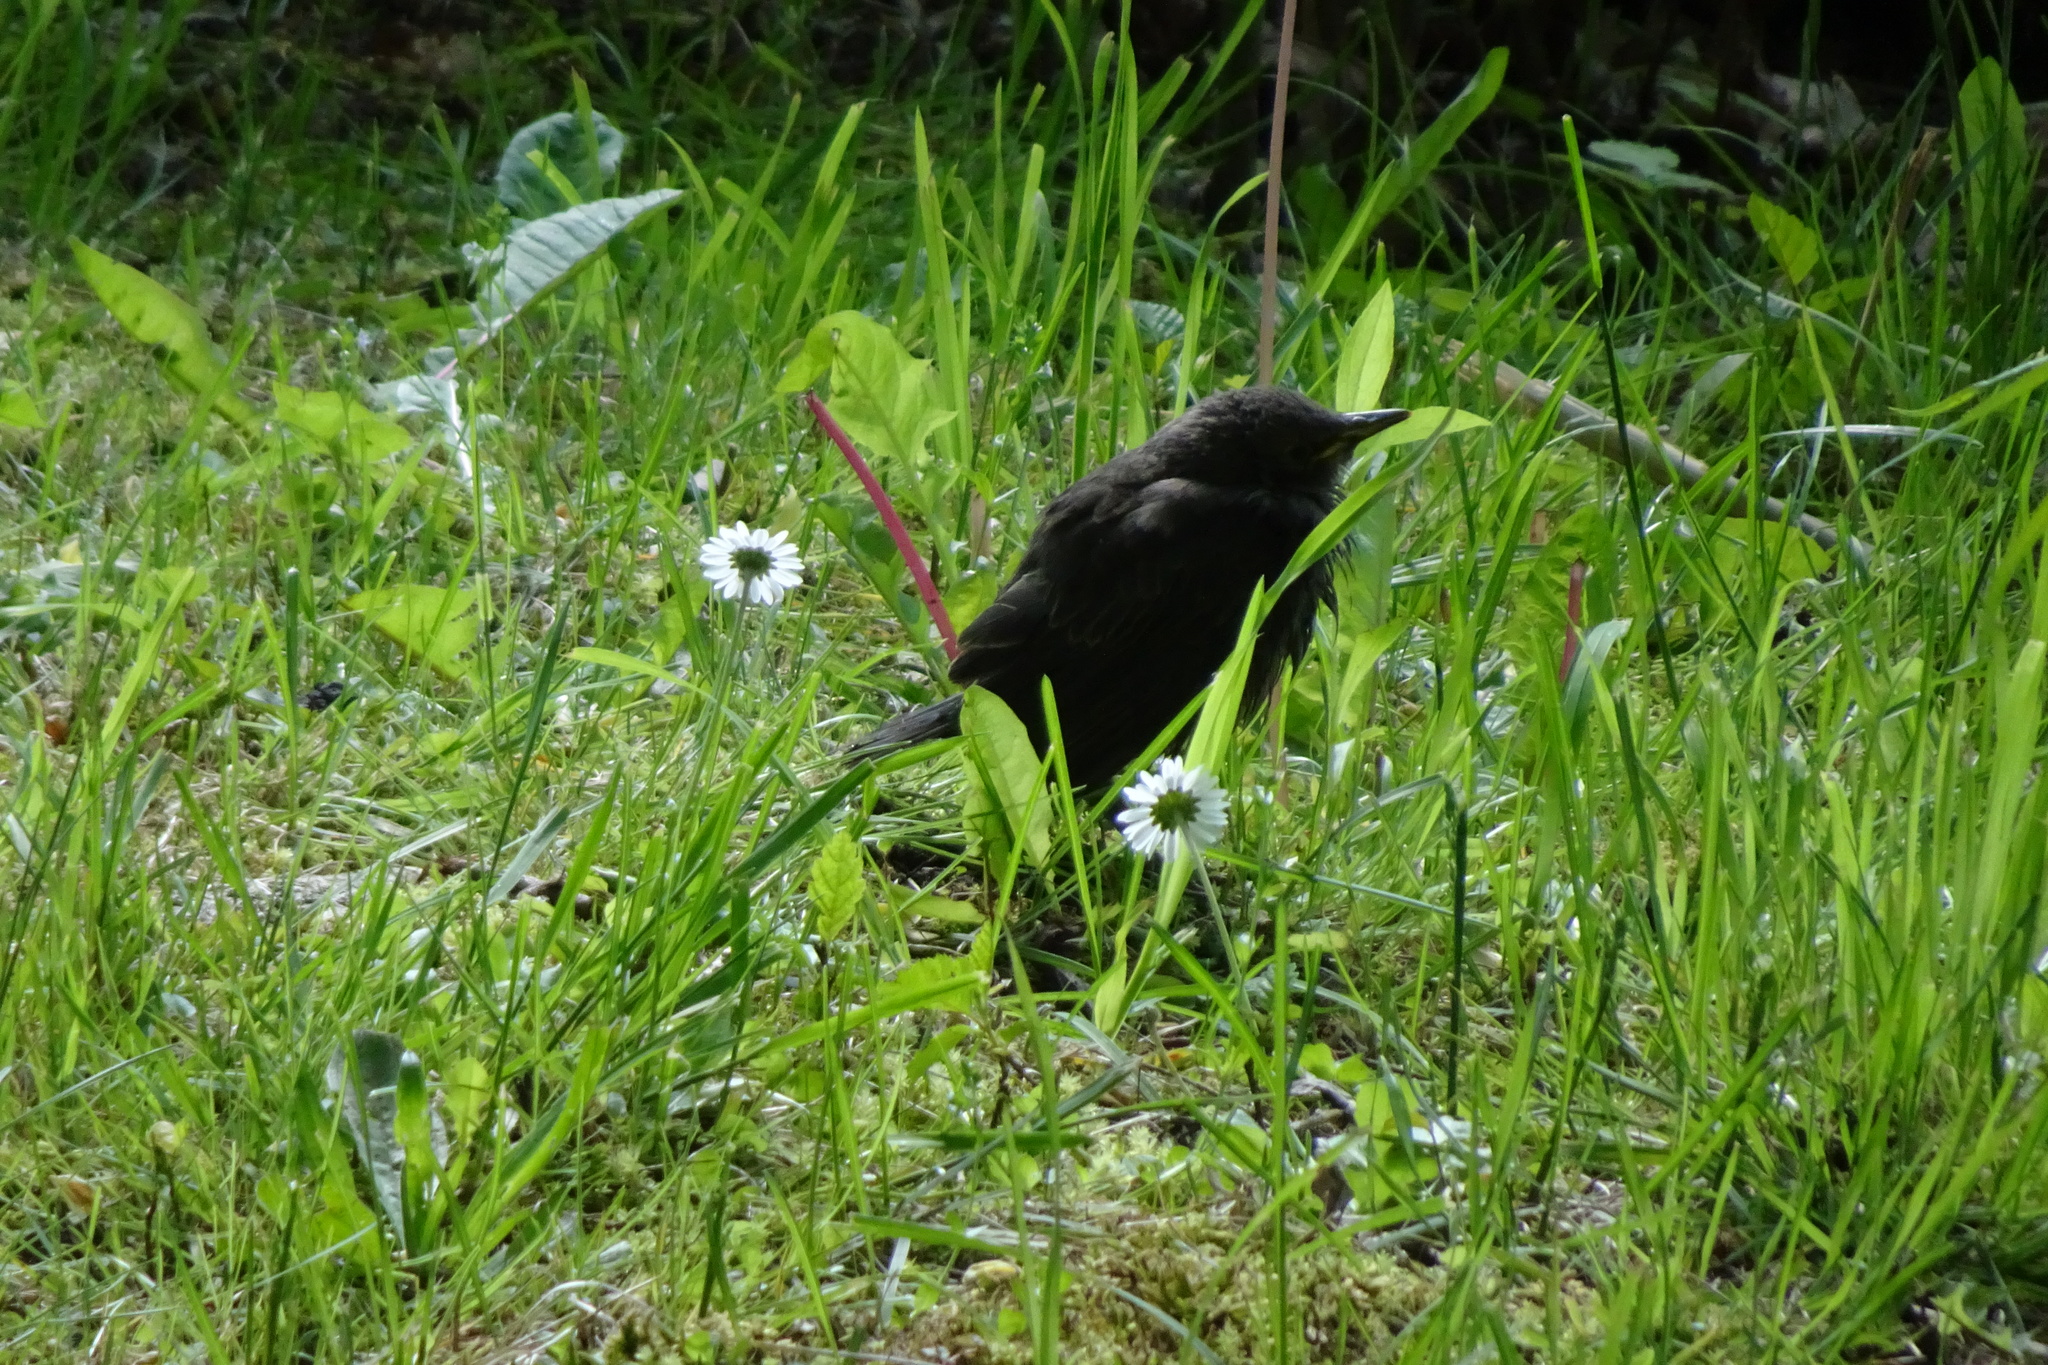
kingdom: Animalia
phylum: Chordata
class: Aves
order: Passeriformes
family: Sturnidae
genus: Sturnus
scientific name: Sturnus vulgaris
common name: Common starling
